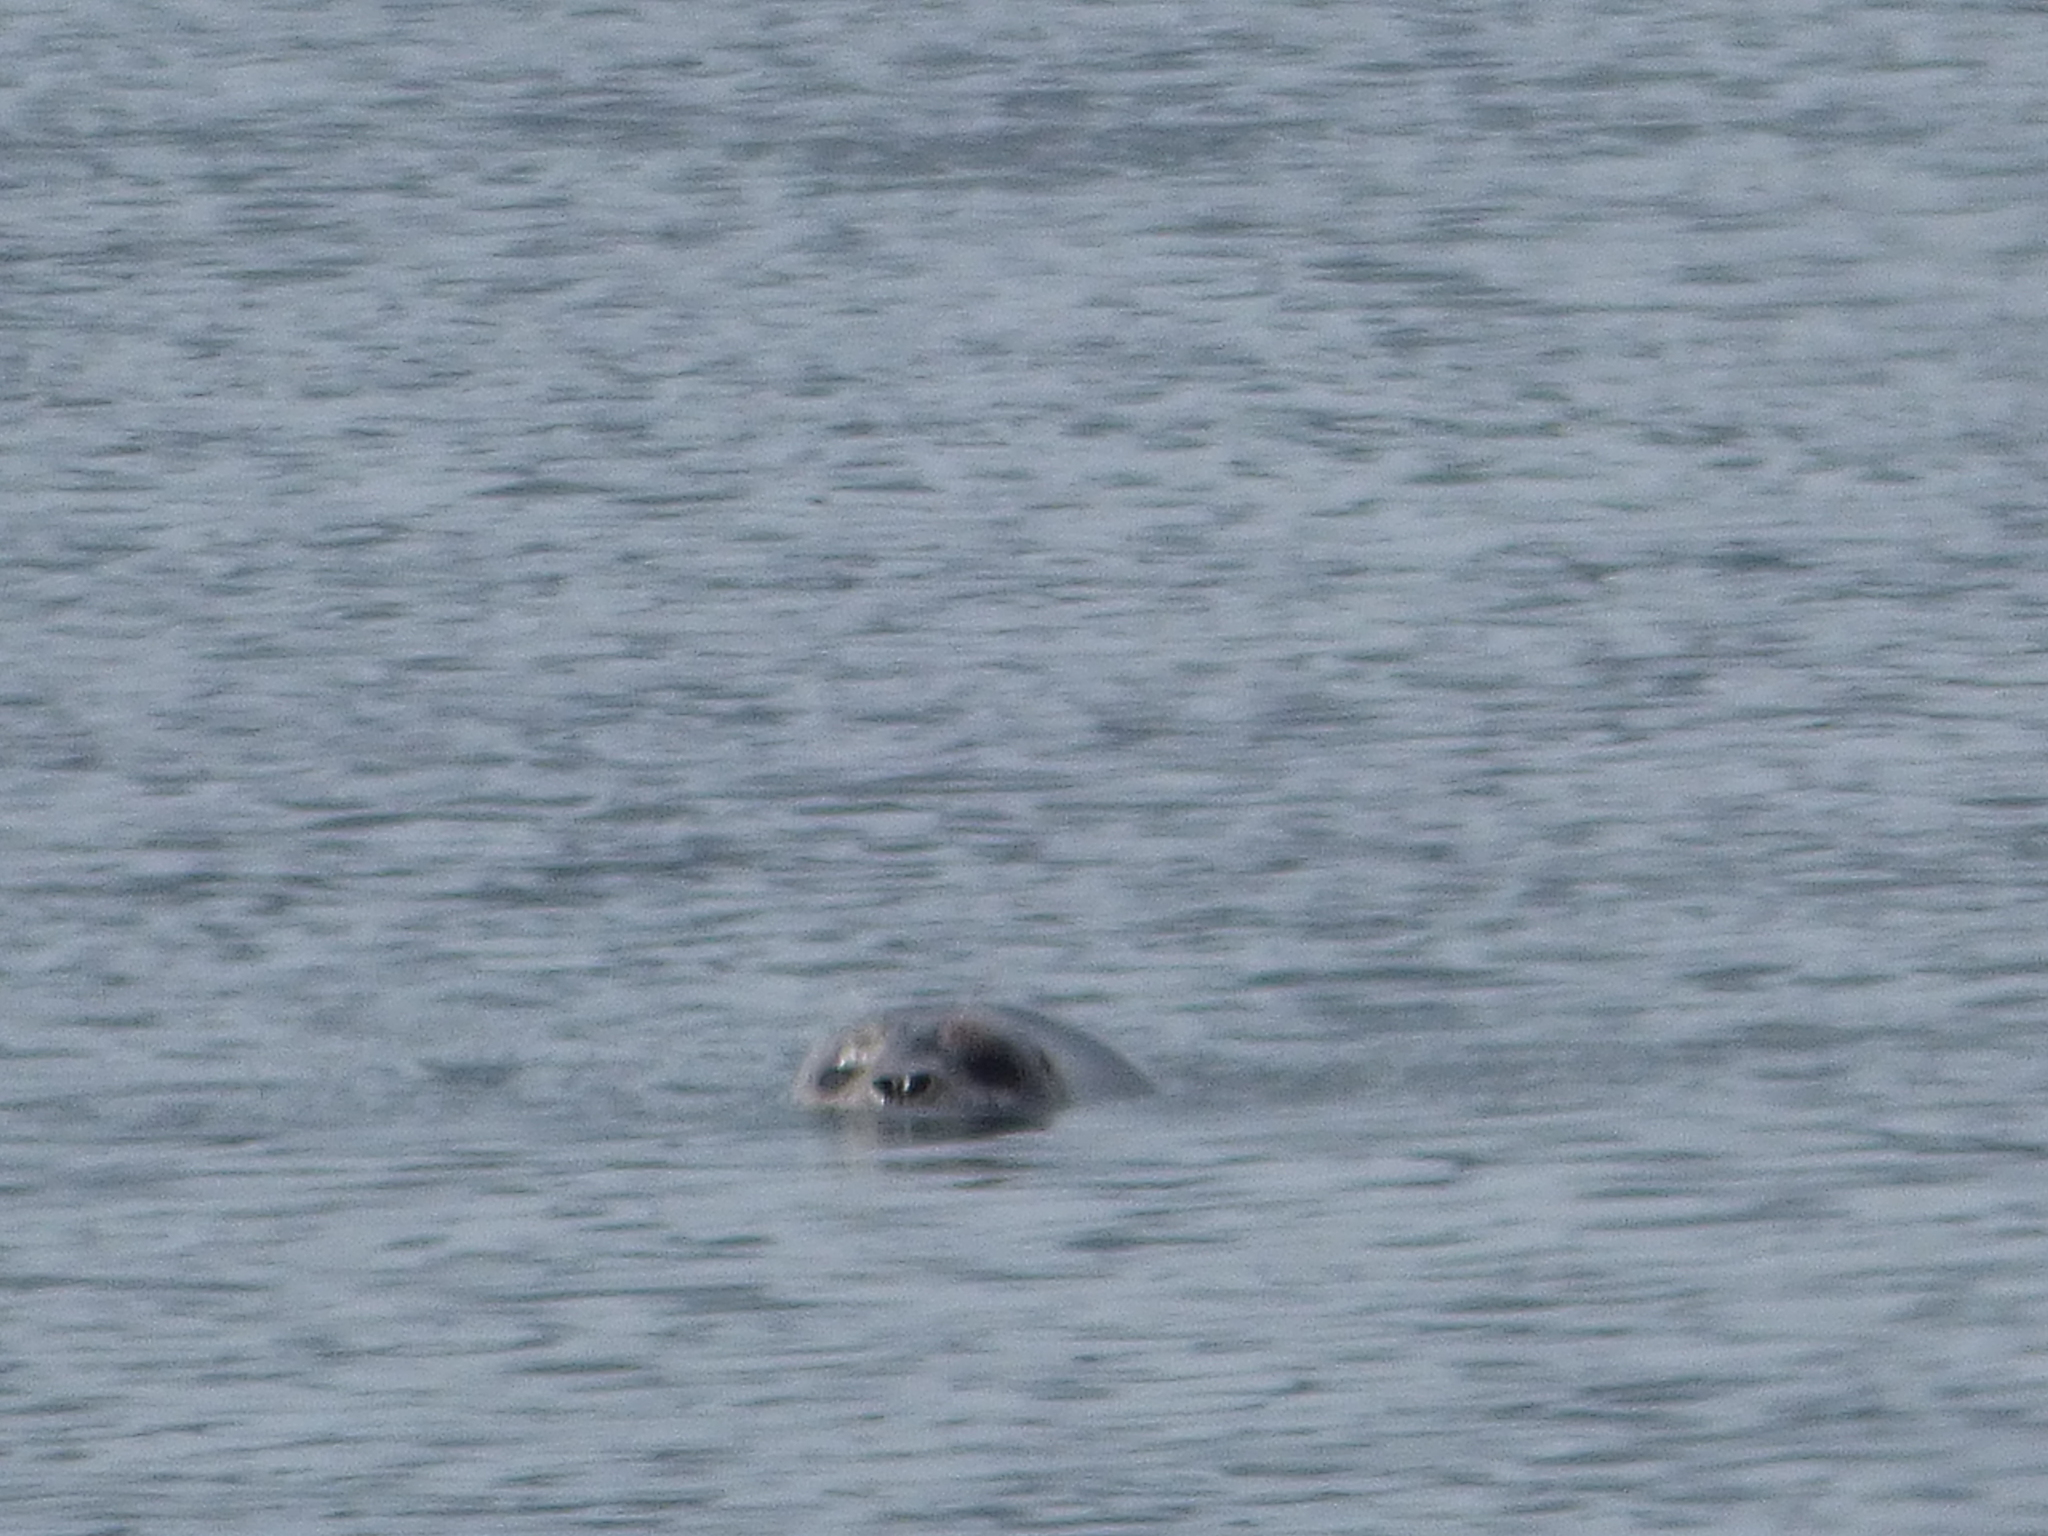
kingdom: Animalia
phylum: Chordata
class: Mammalia
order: Carnivora
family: Phocidae
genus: Phoca
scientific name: Phoca vitulina
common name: Harbor seal
